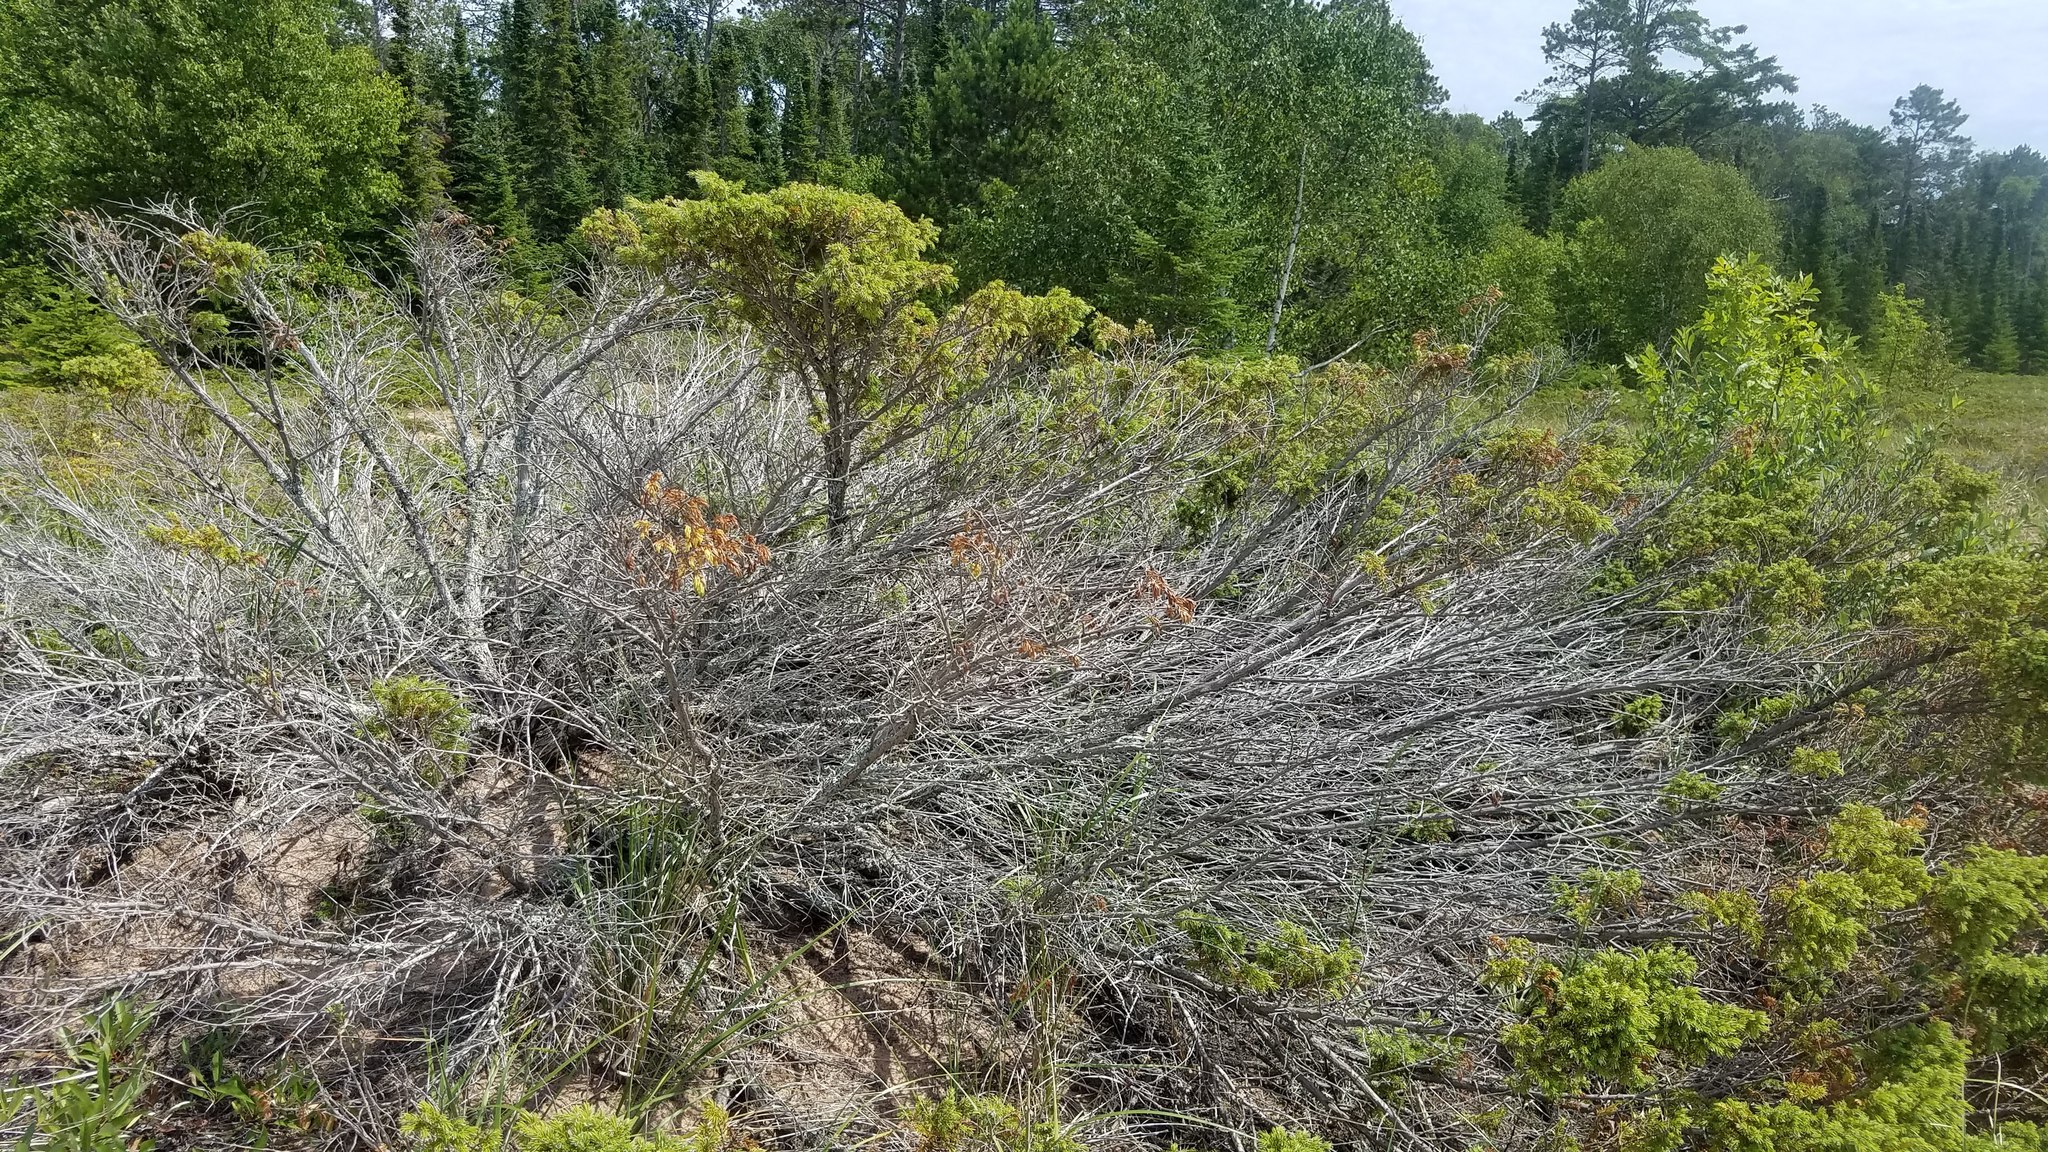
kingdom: Plantae
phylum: Tracheophyta
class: Pinopsida
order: Pinales
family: Cupressaceae
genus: Juniperus
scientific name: Juniperus communis
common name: Common juniper
